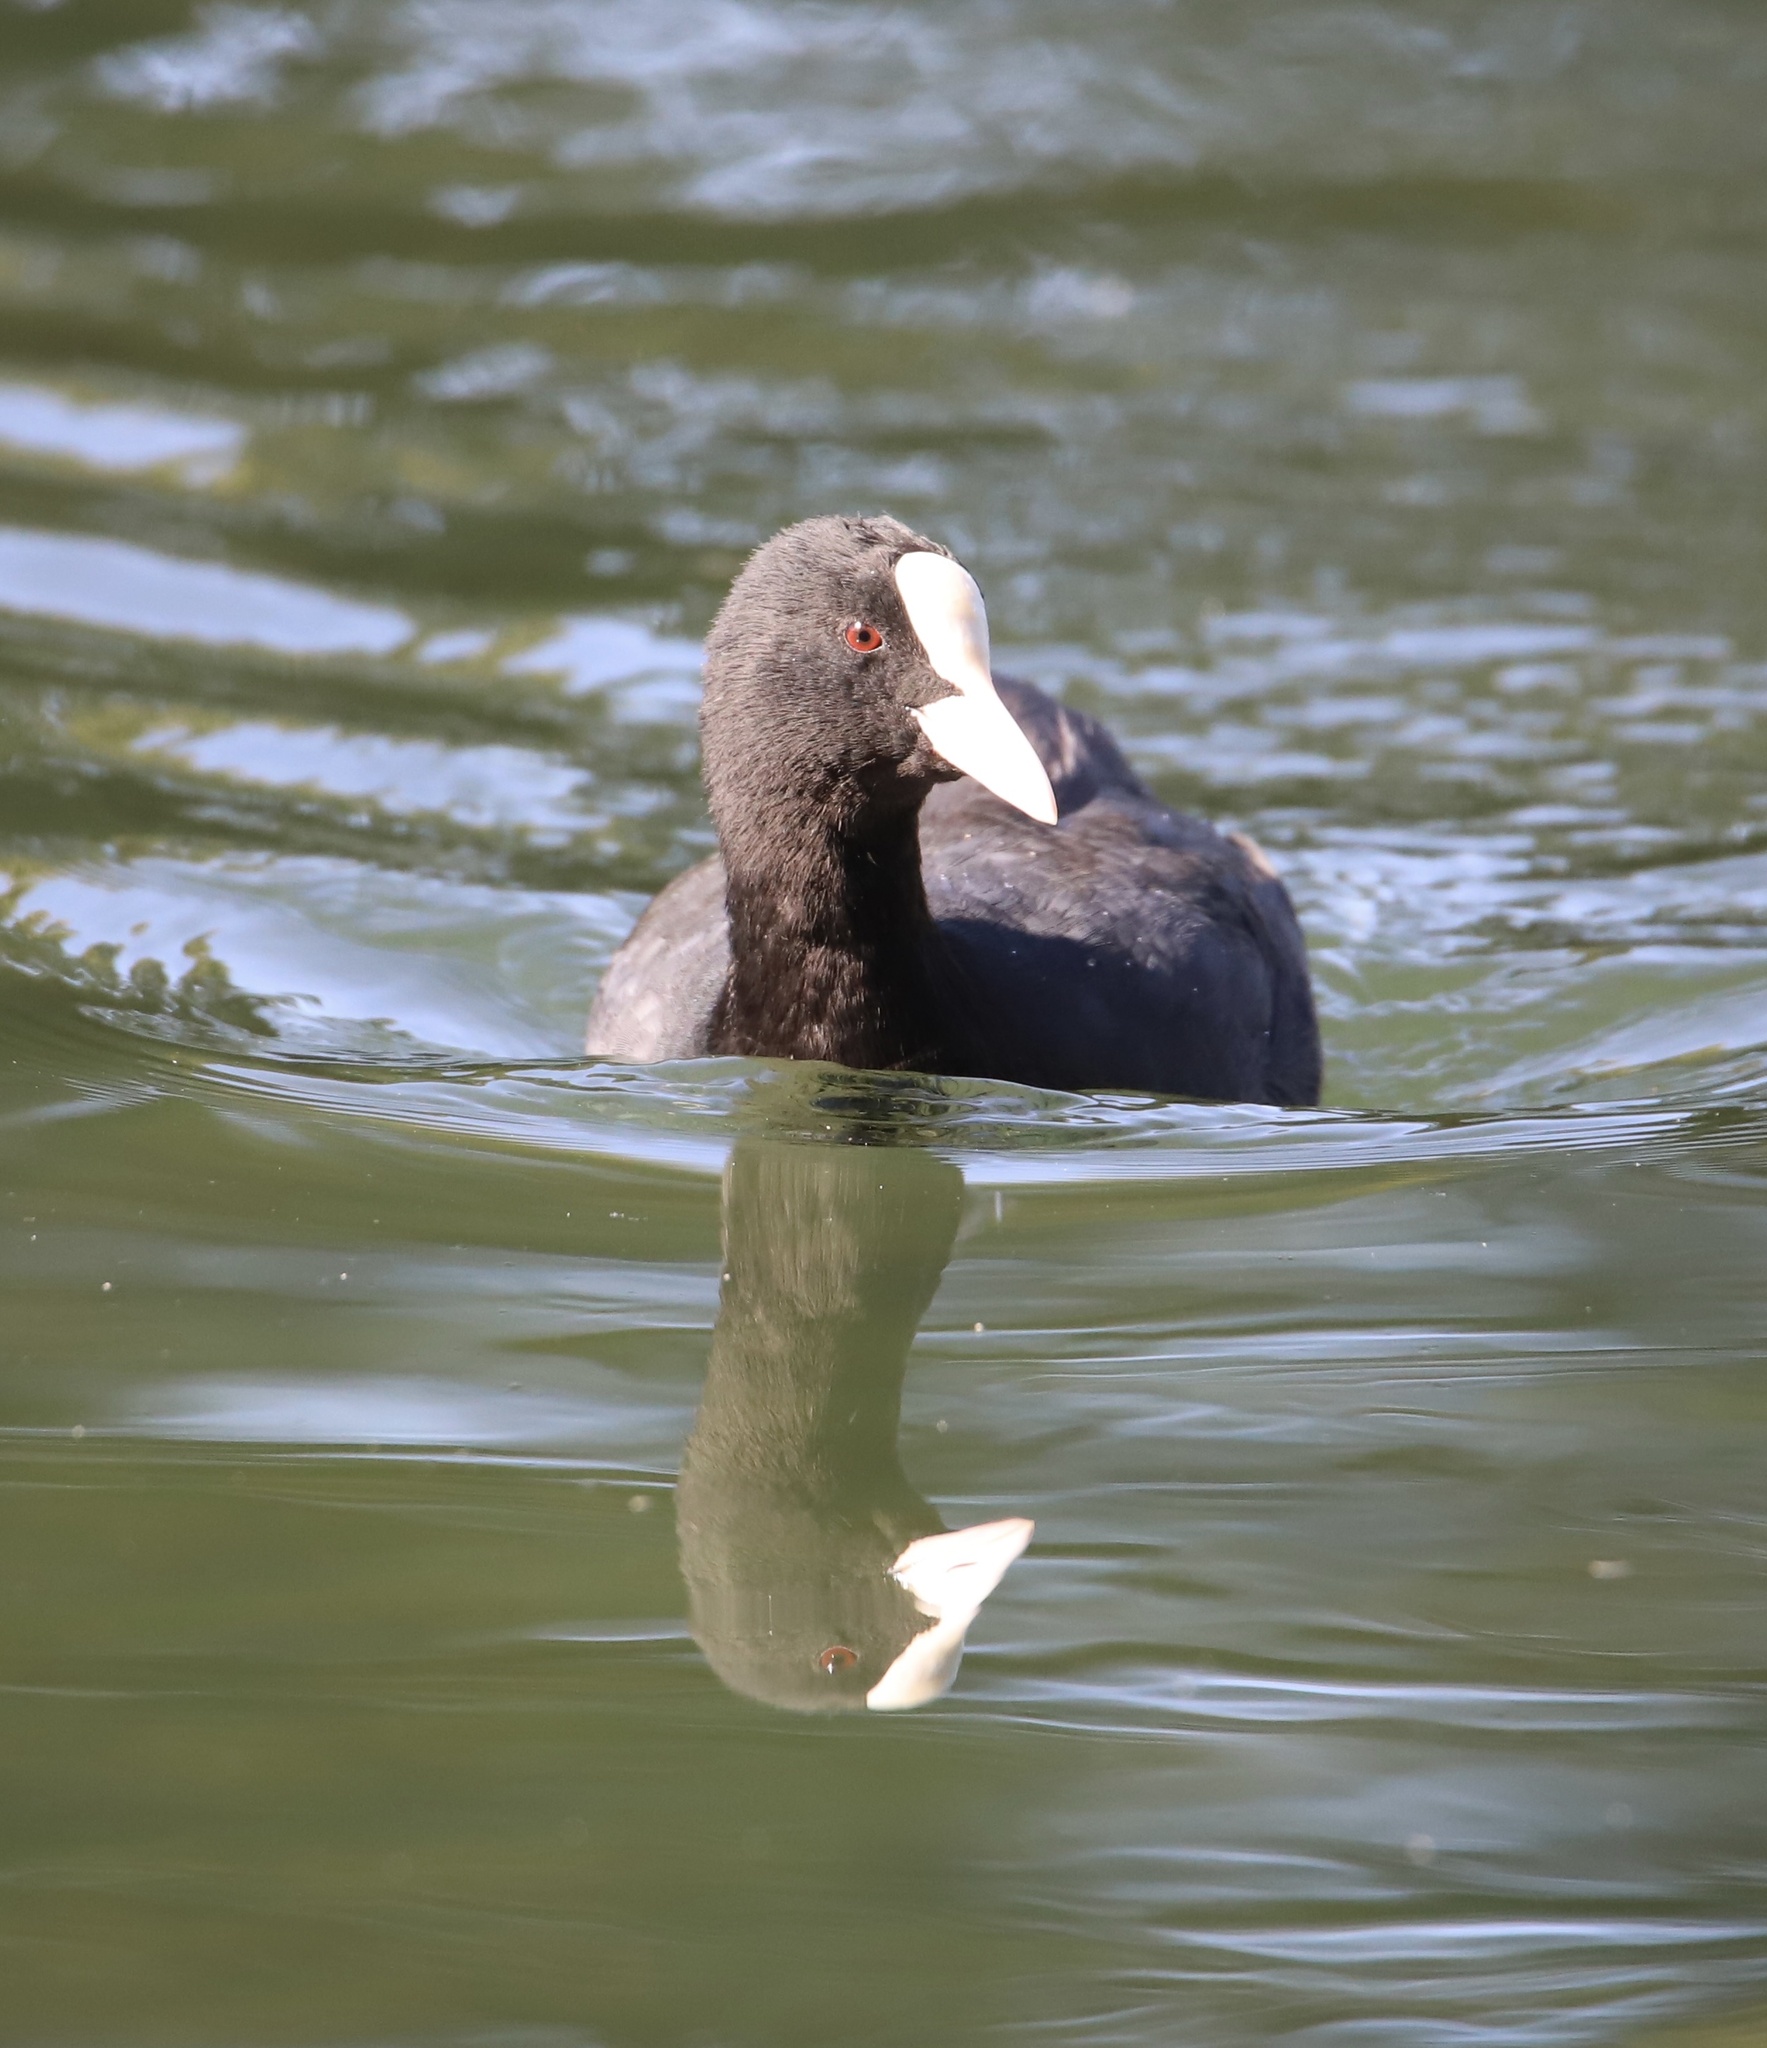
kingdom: Animalia
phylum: Chordata
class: Aves
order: Gruiformes
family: Rallidae
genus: Fulica
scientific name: Fulica atra
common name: Eurasian coot
